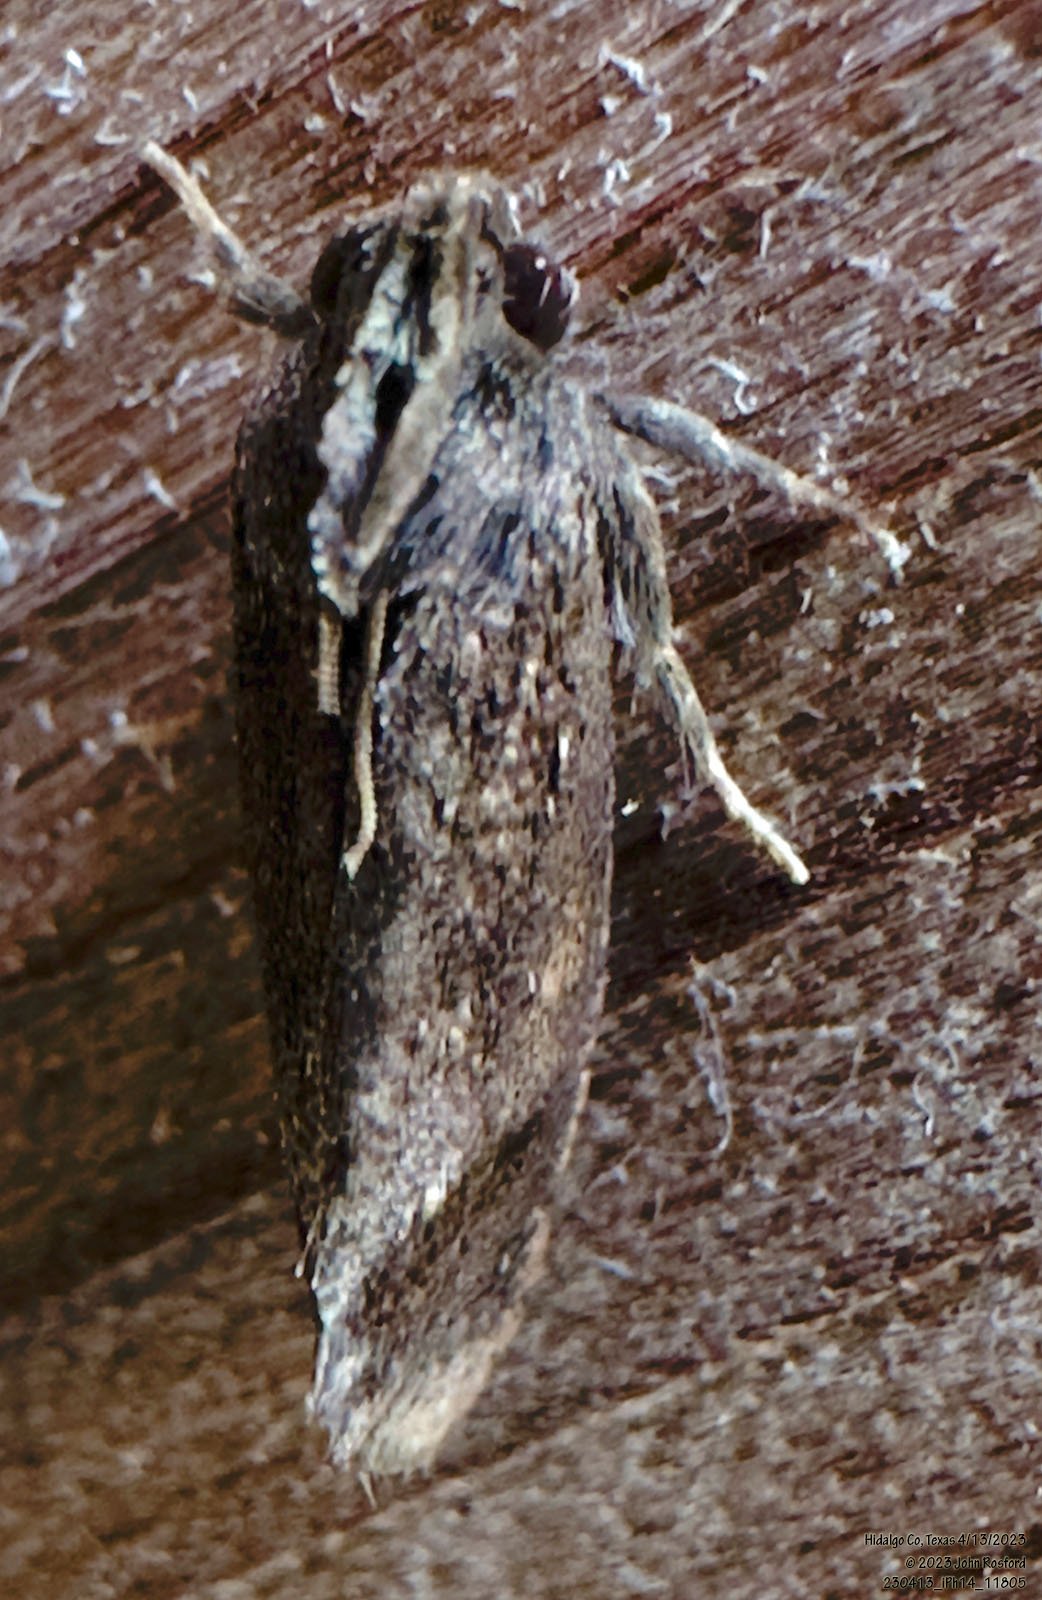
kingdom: Animalia
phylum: Arthropoda
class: Insecta
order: Lepidoptera
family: Tineidae
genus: Acrolophus
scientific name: Acrolophus texanella
